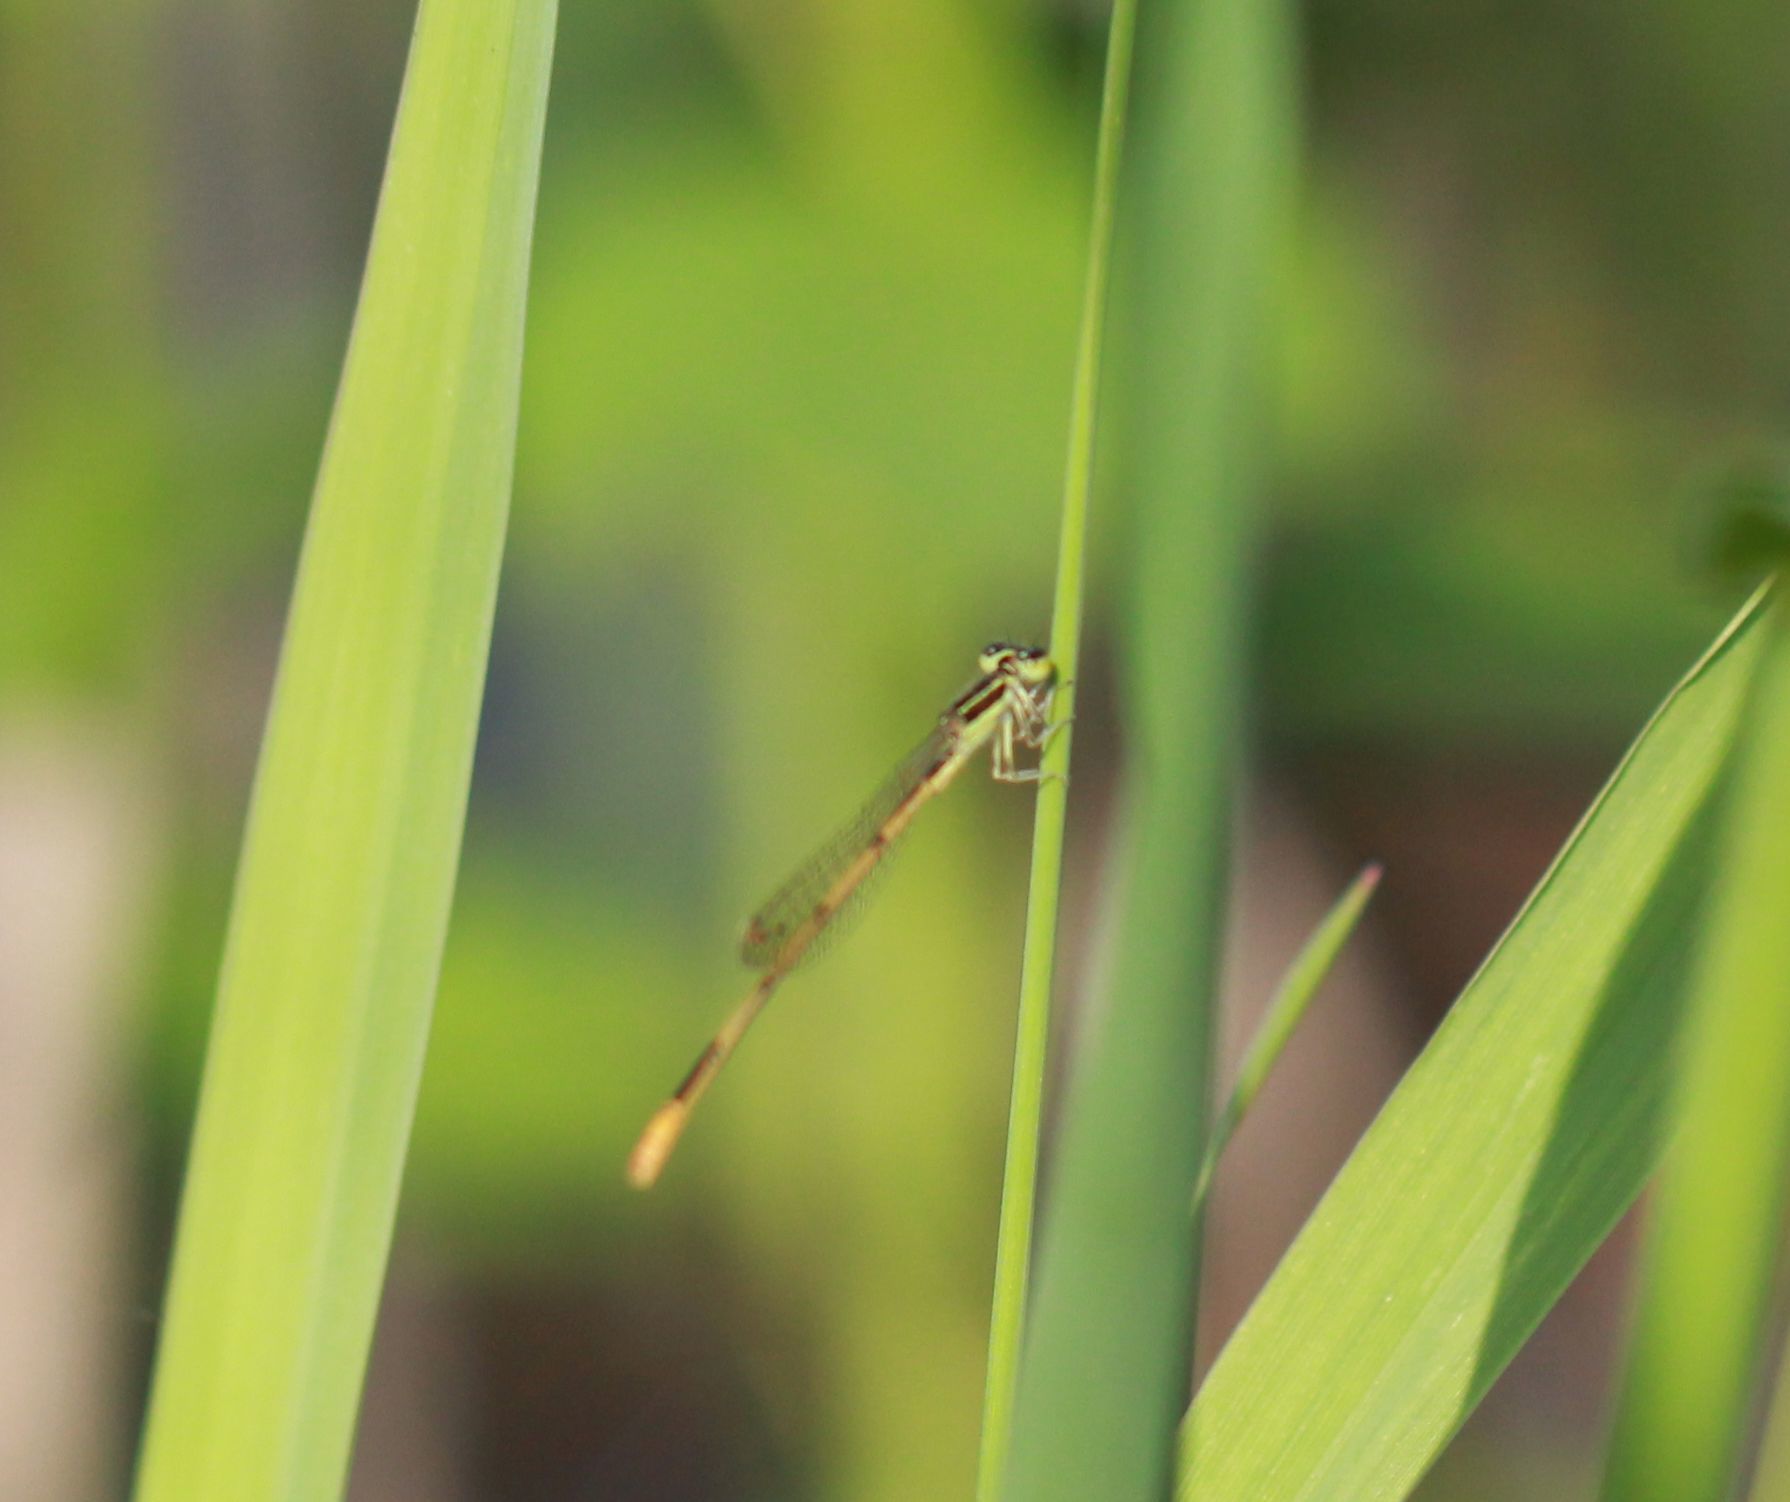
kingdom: Animalia
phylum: Arthropoda
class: Insecta
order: Odonata
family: Coenagrionidae
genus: Ischnura
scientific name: Ischnura hastata
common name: Citrine forktail
